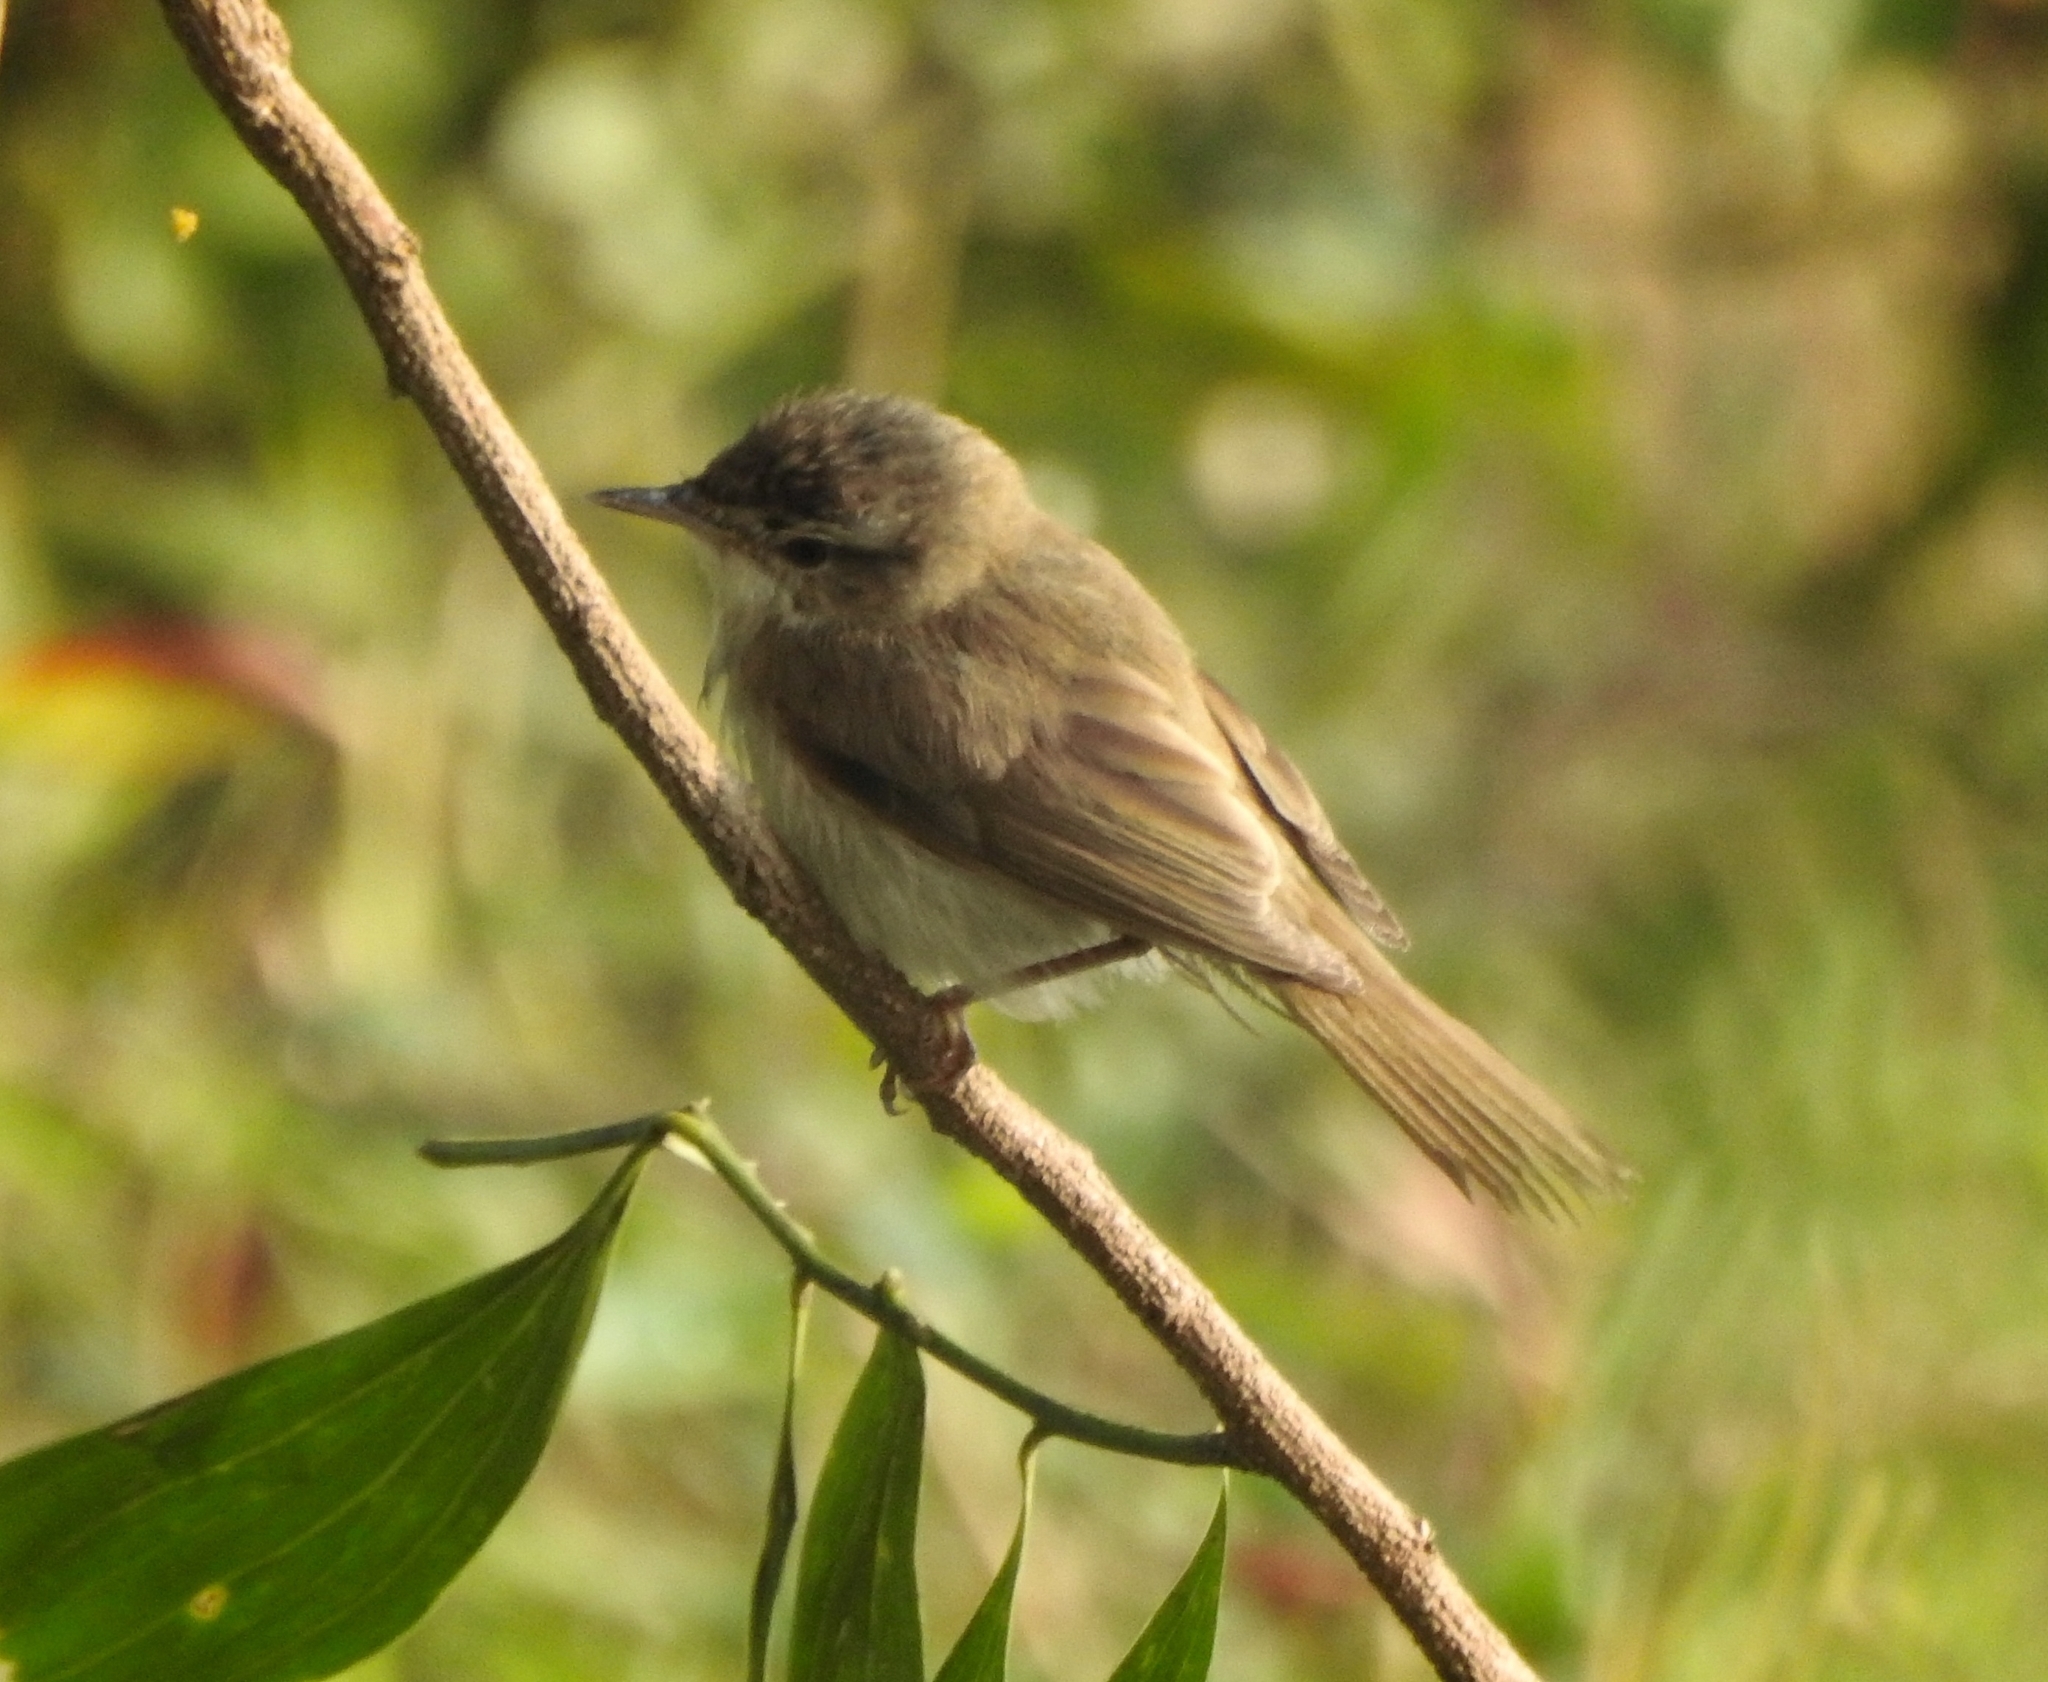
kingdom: Animalia
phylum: Chordata
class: Aves
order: Passeriformes
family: Acrocephalidae
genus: Acrocephalus
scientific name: Acrocephalus dumetorum
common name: Blyth's reed warbler
